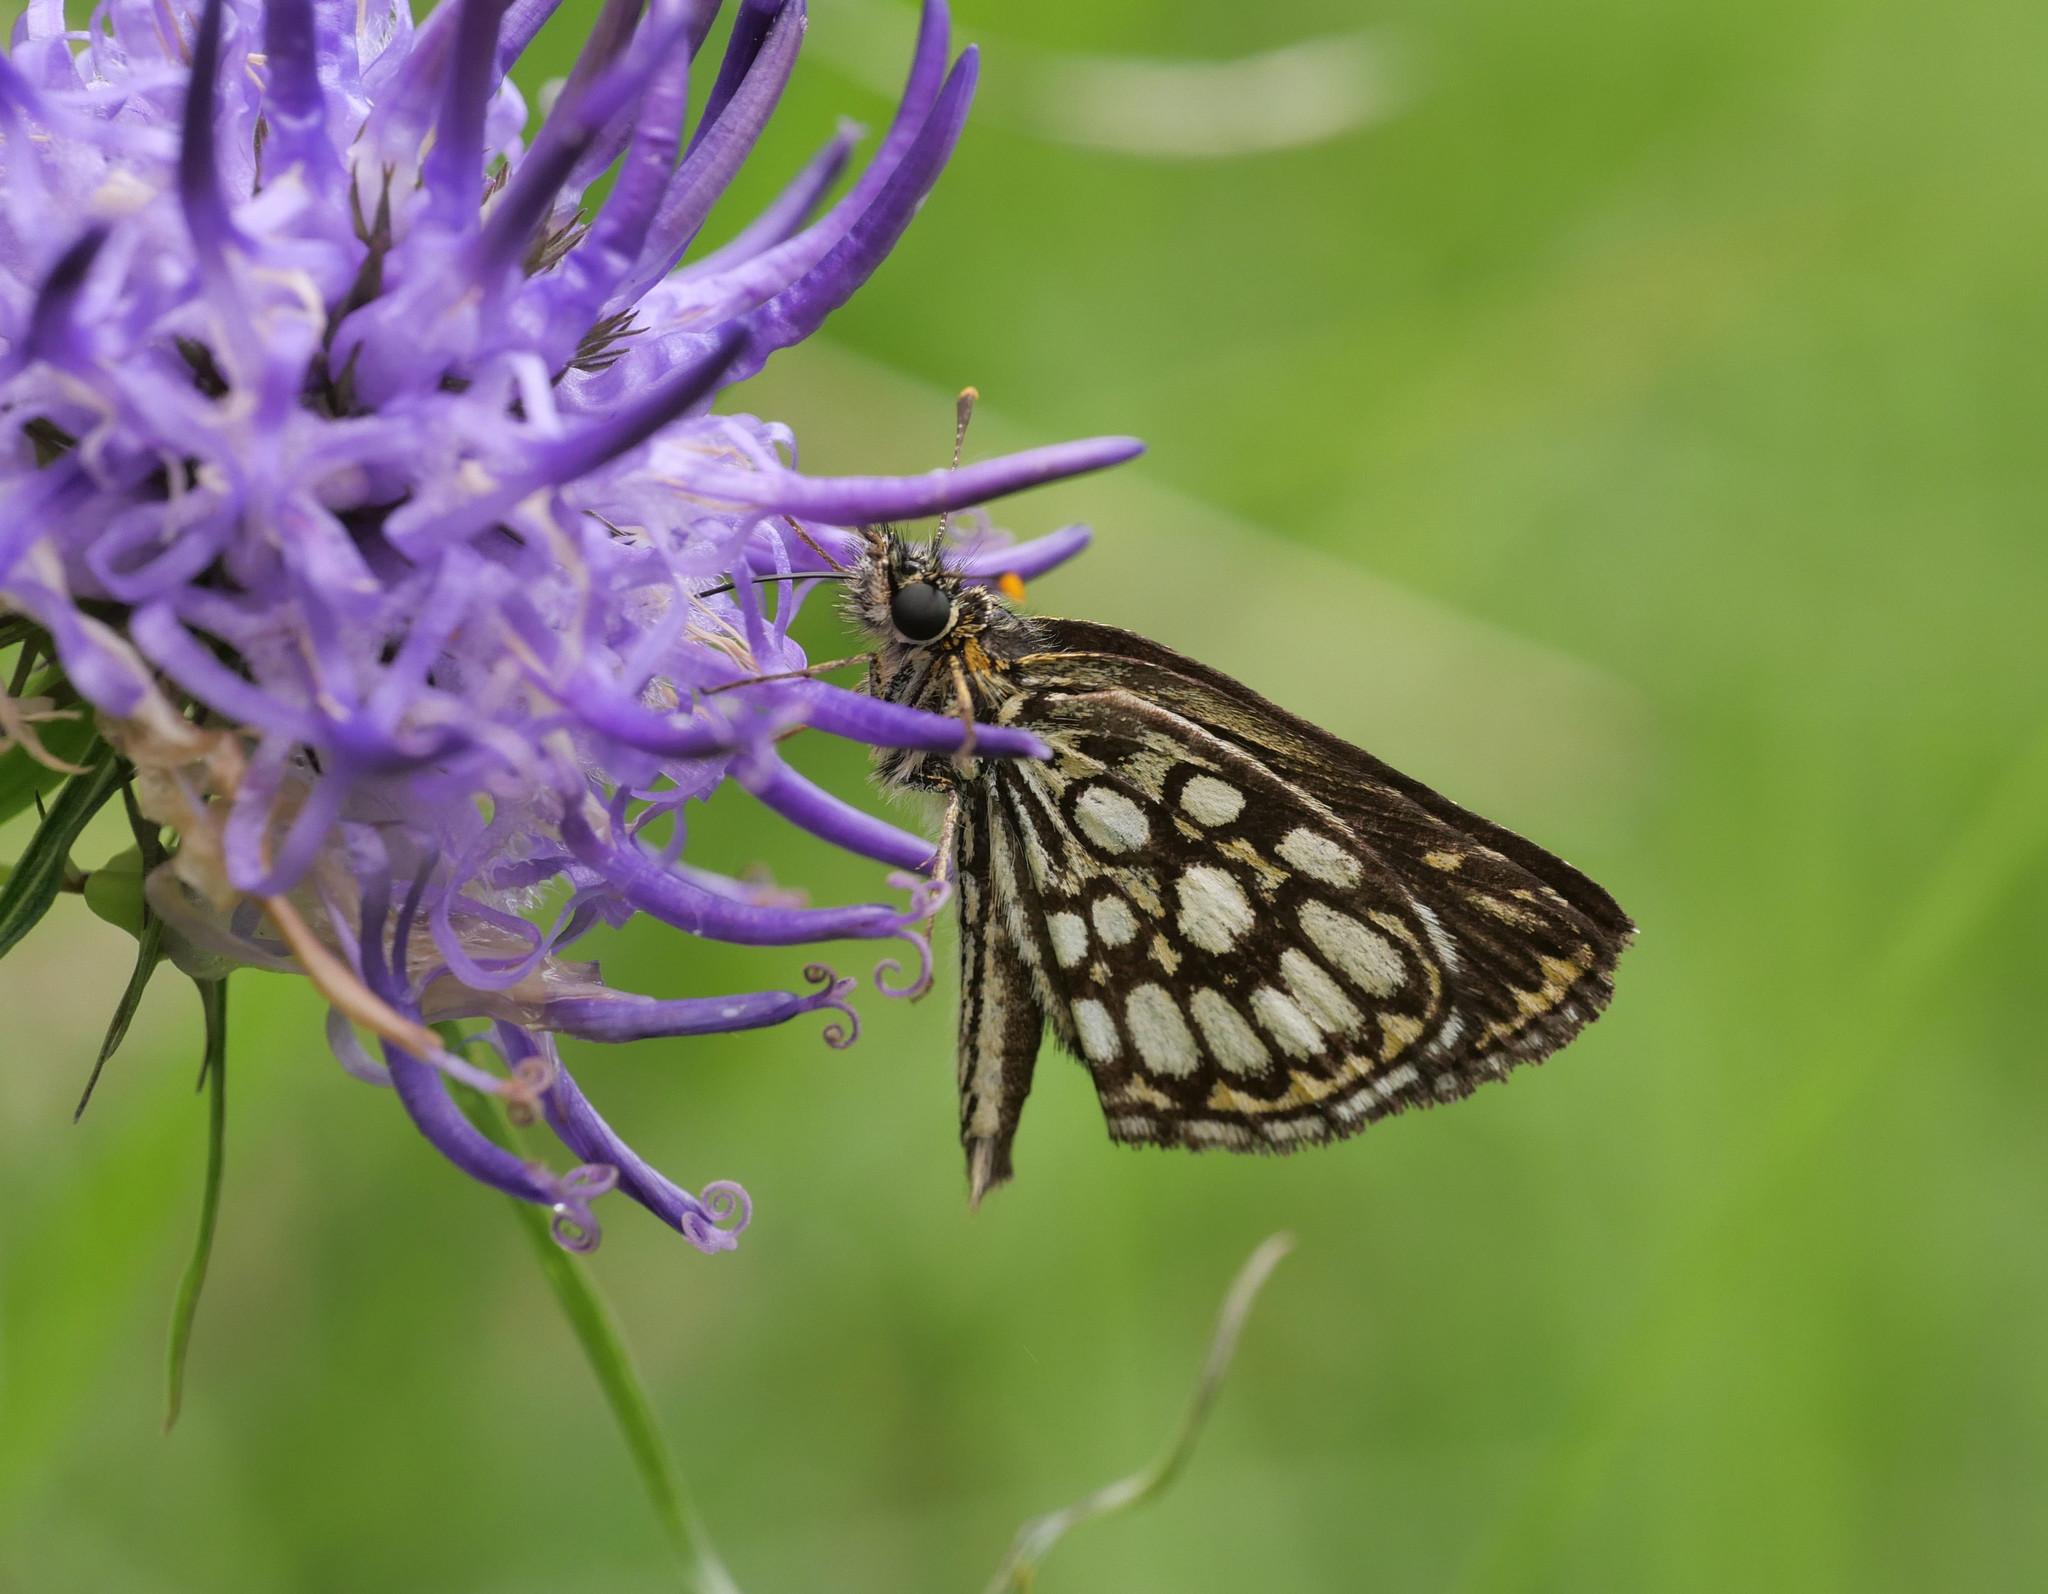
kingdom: Animalia
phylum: Arthropoda
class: Insecta
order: Lepidoptera
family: Hesperiidae
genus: Heteropterus
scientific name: Heteropterus morpheus
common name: Large chequered skipper
